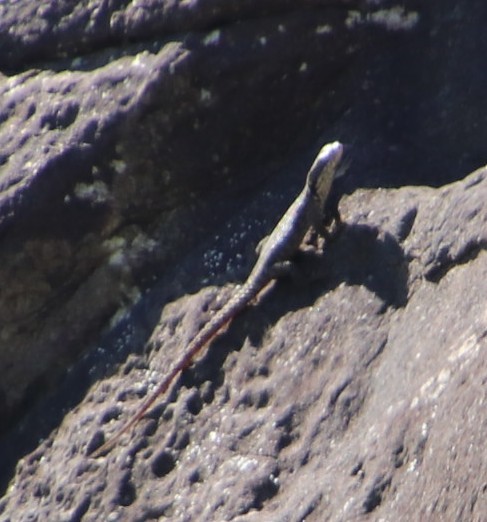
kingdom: Animalia
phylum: Chordata
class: Squamata
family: Scincidae
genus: Trachylepis
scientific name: Trachylepis punctatissima
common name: Montane speckled skink
